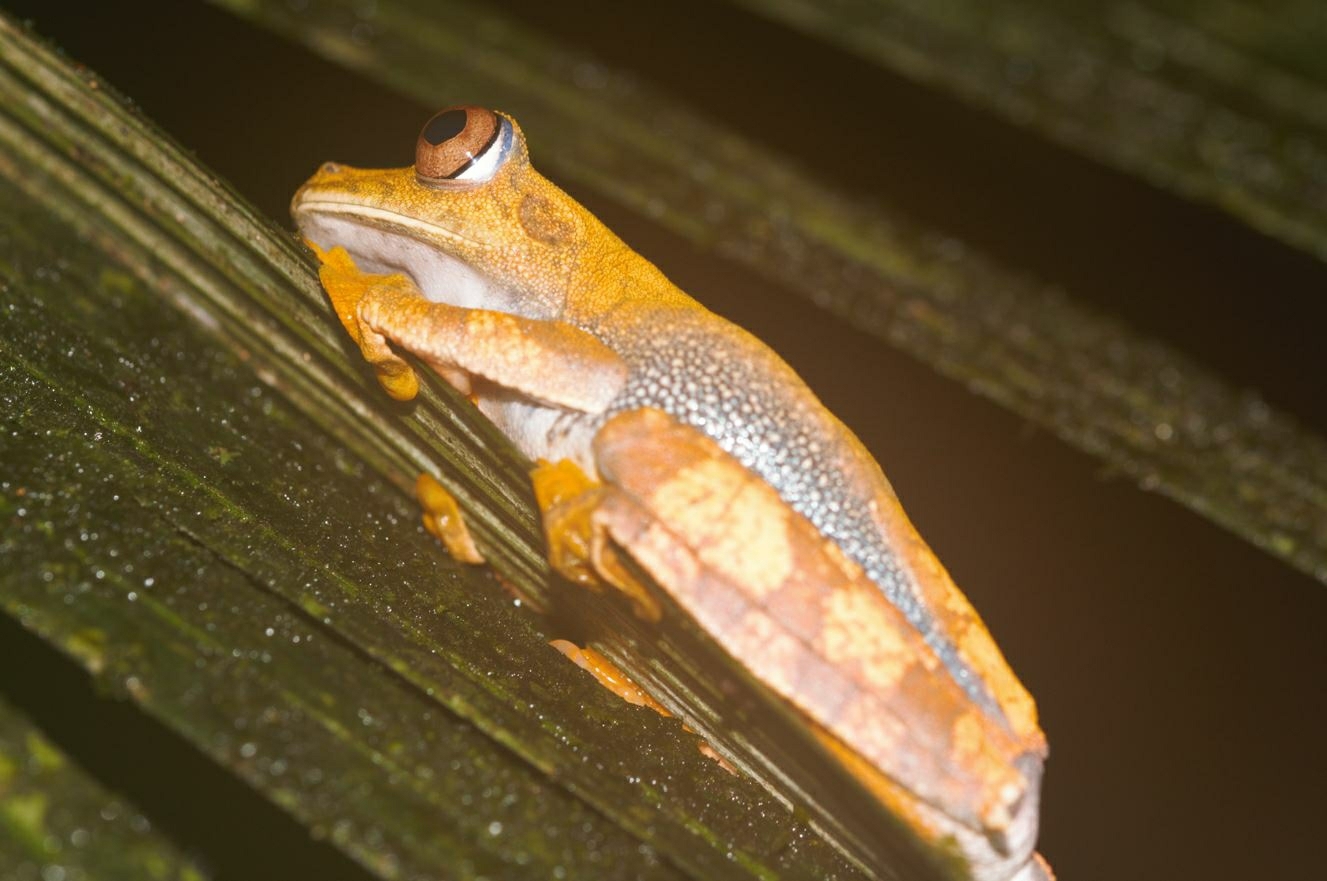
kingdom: Animalia
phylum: Chordata
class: Amphibia
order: Anura
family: Hylidae
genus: Boana
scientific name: Boana semilineata
